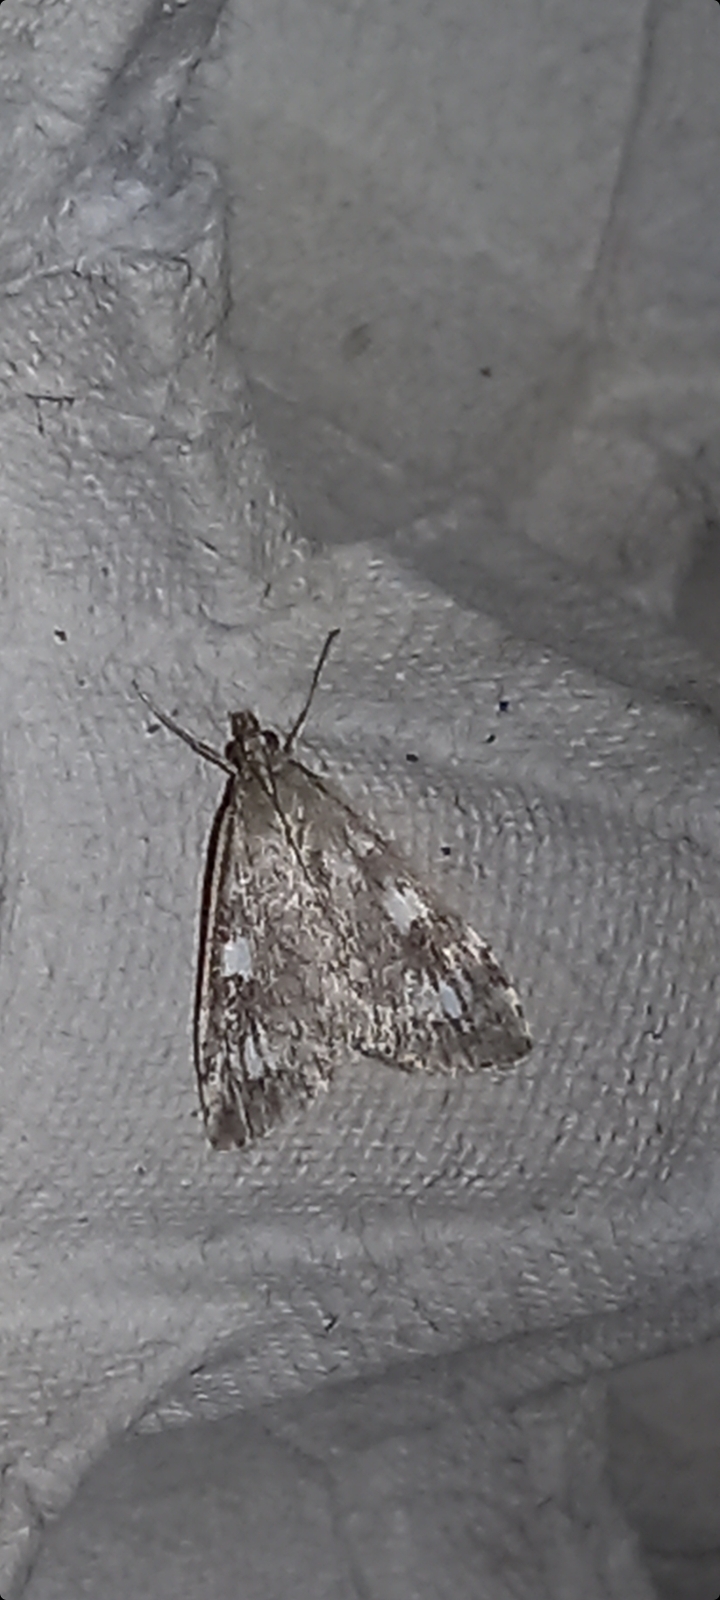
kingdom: Animalia
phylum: Arthropoda
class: Insecta
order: Lepidoptera
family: Crambidae
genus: Udea
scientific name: Udea olivalis
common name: Olive pearl
